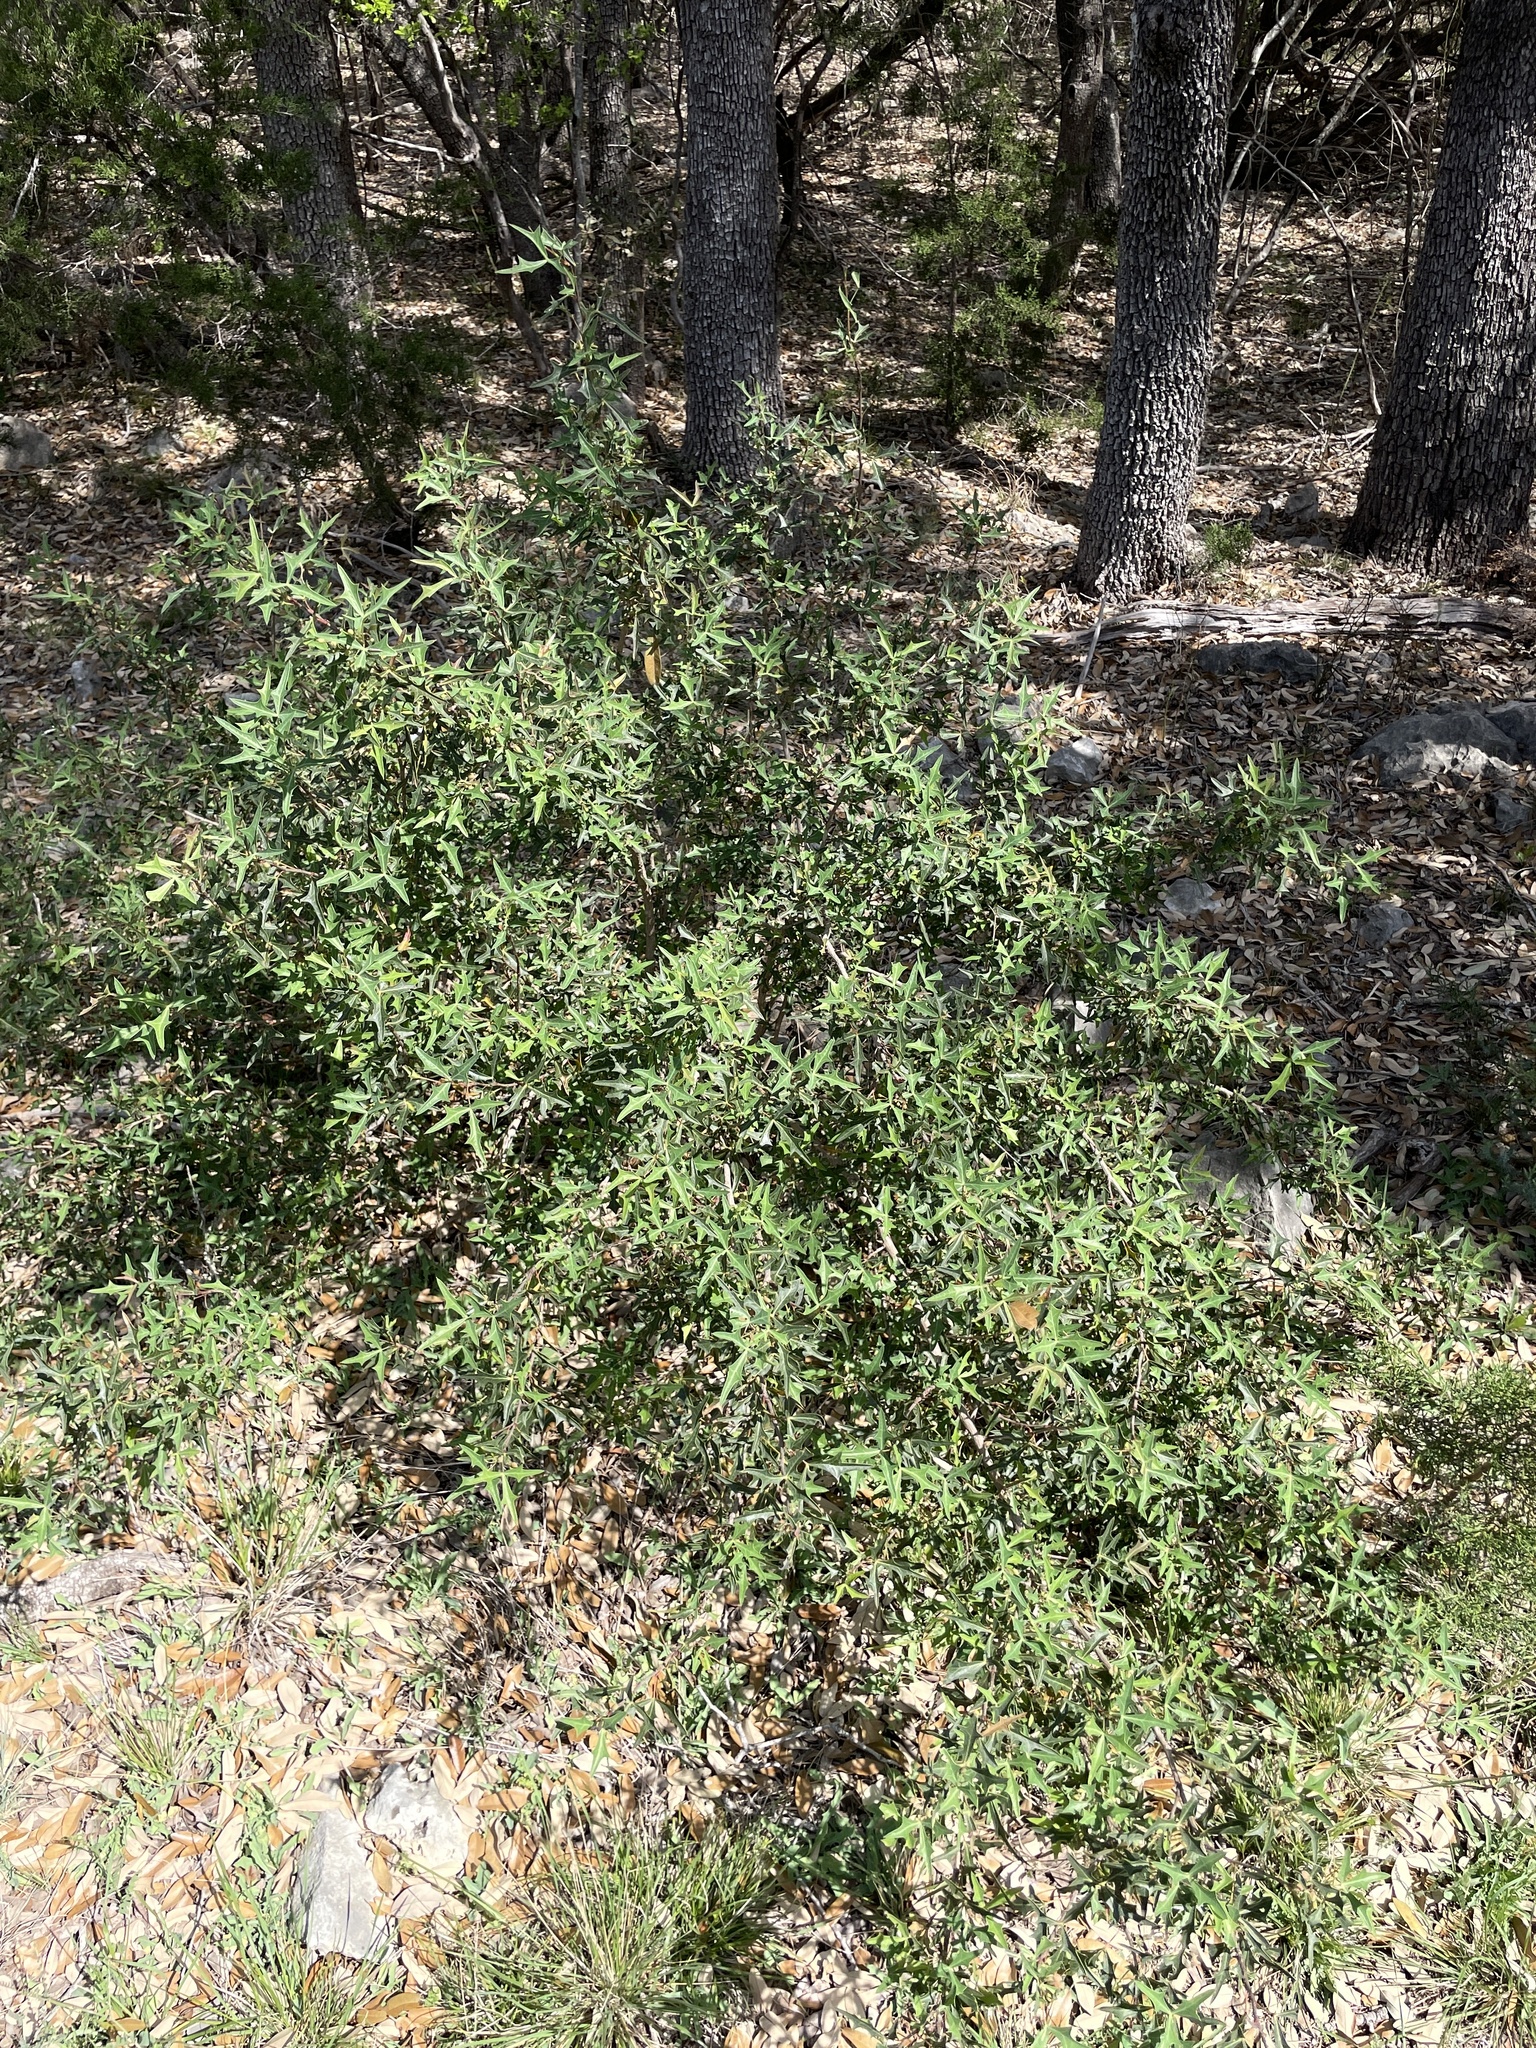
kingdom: Plantae
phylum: Tracheophyta
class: Magnoliopsida
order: Ranunculales
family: Berberidaceae
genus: Alloberberis
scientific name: Alloberberis trifoliolata
